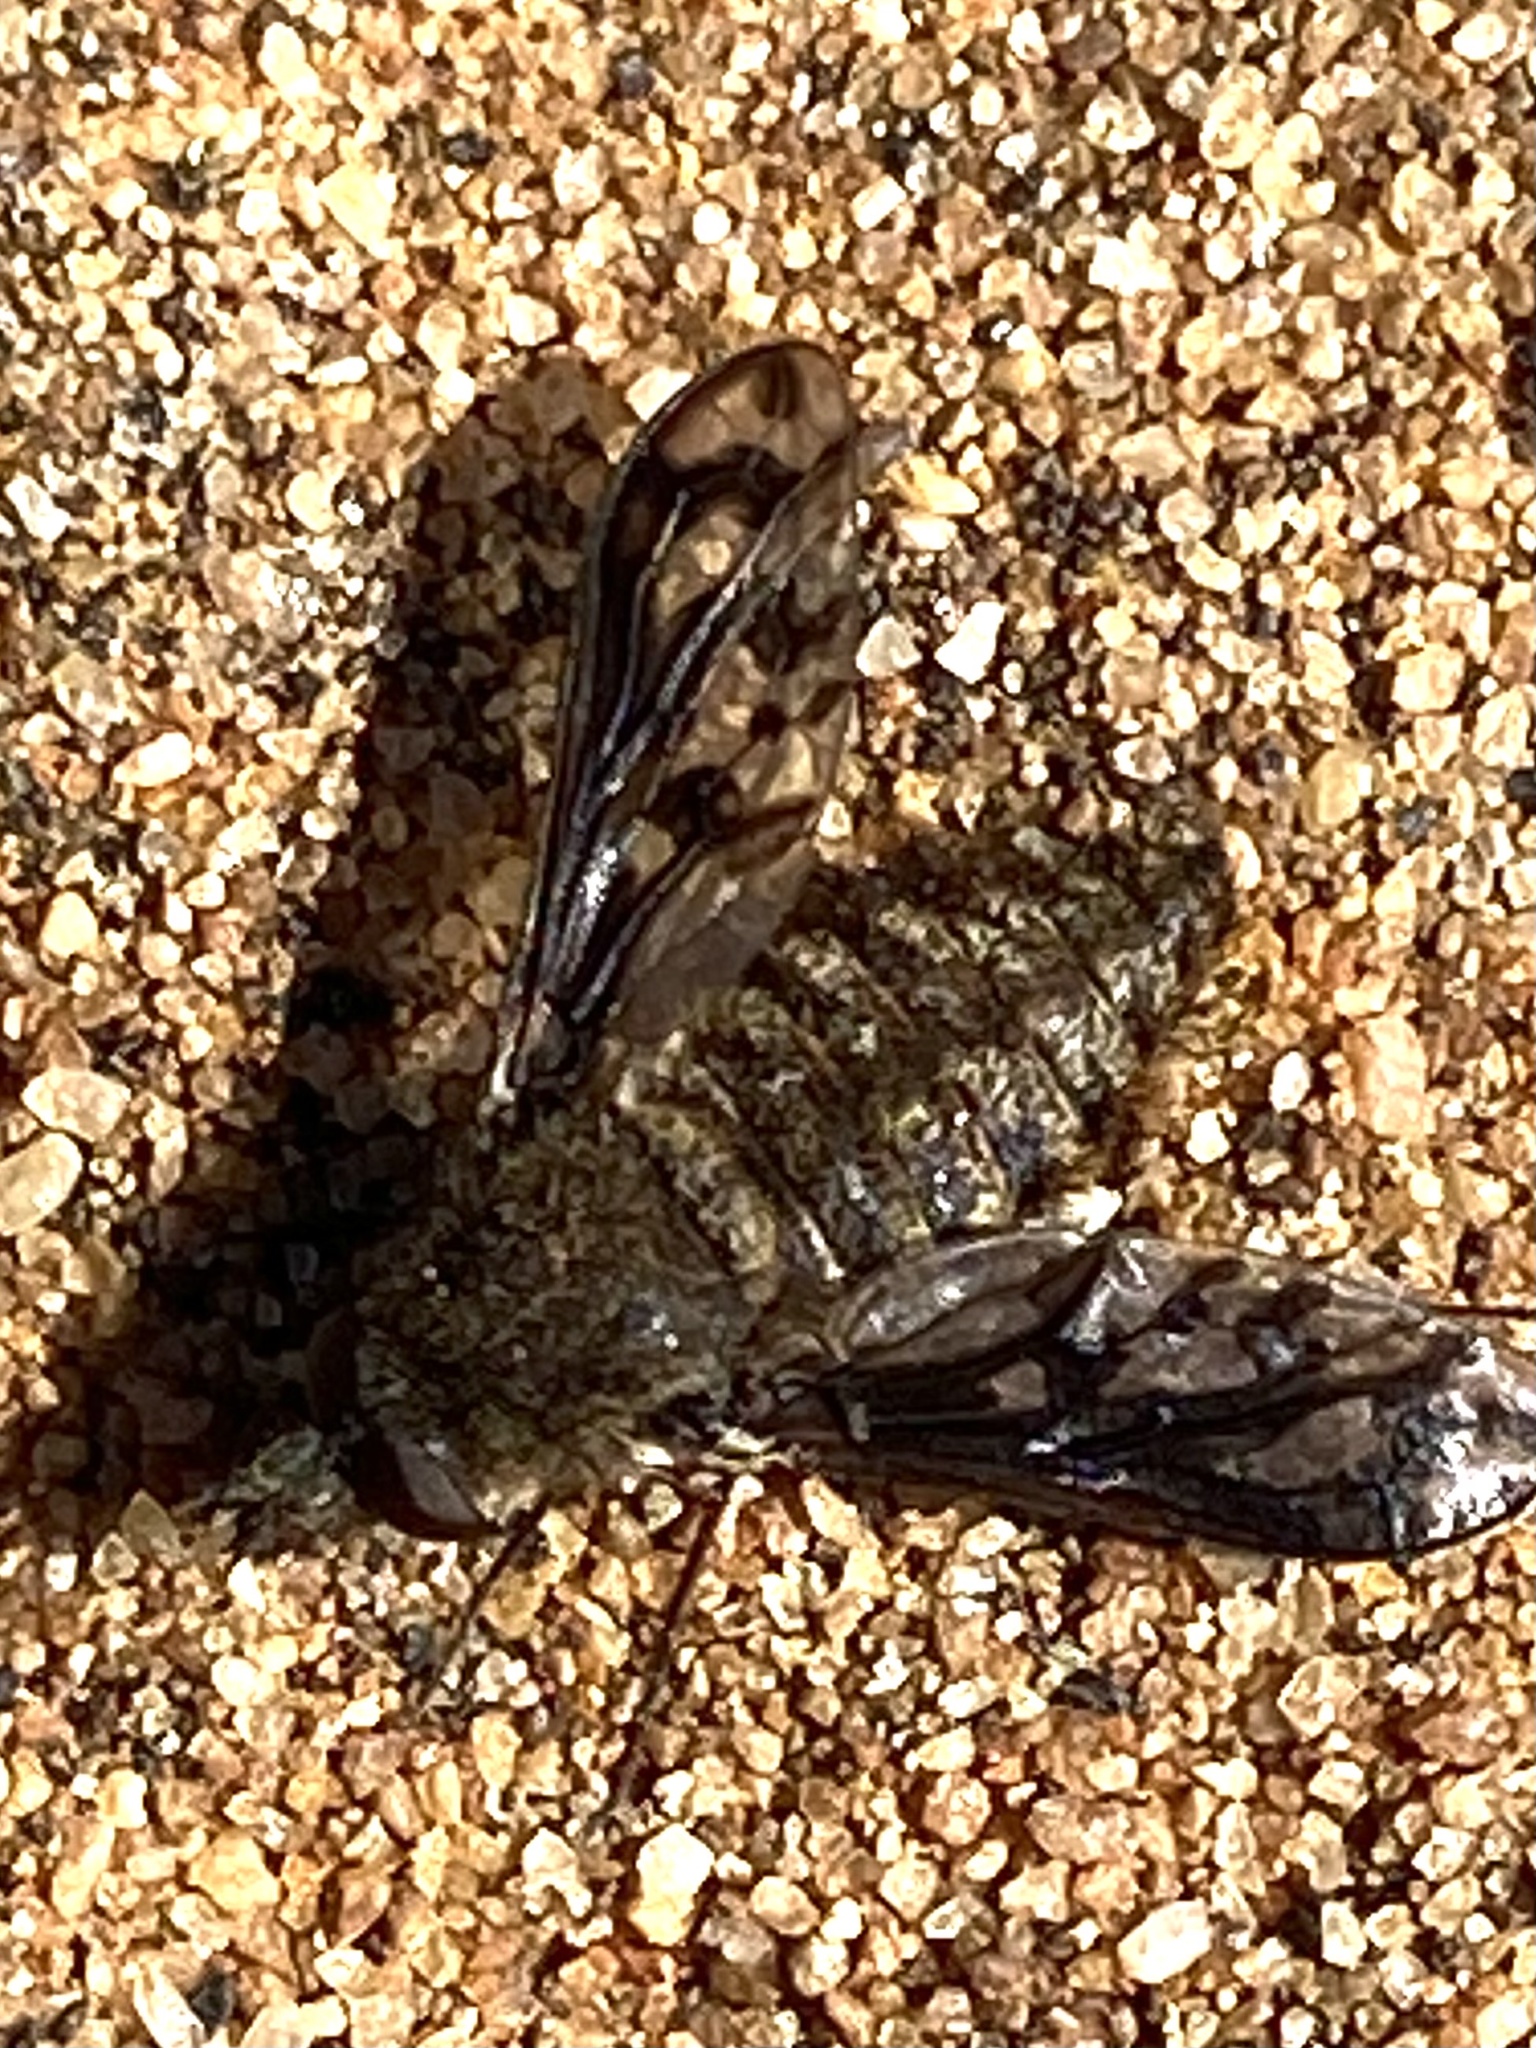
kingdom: Animalia
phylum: Arthropoda
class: Insecta
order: Diptera
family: Bombyliidae
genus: Conophorus
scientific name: Conophorus fenestratus
